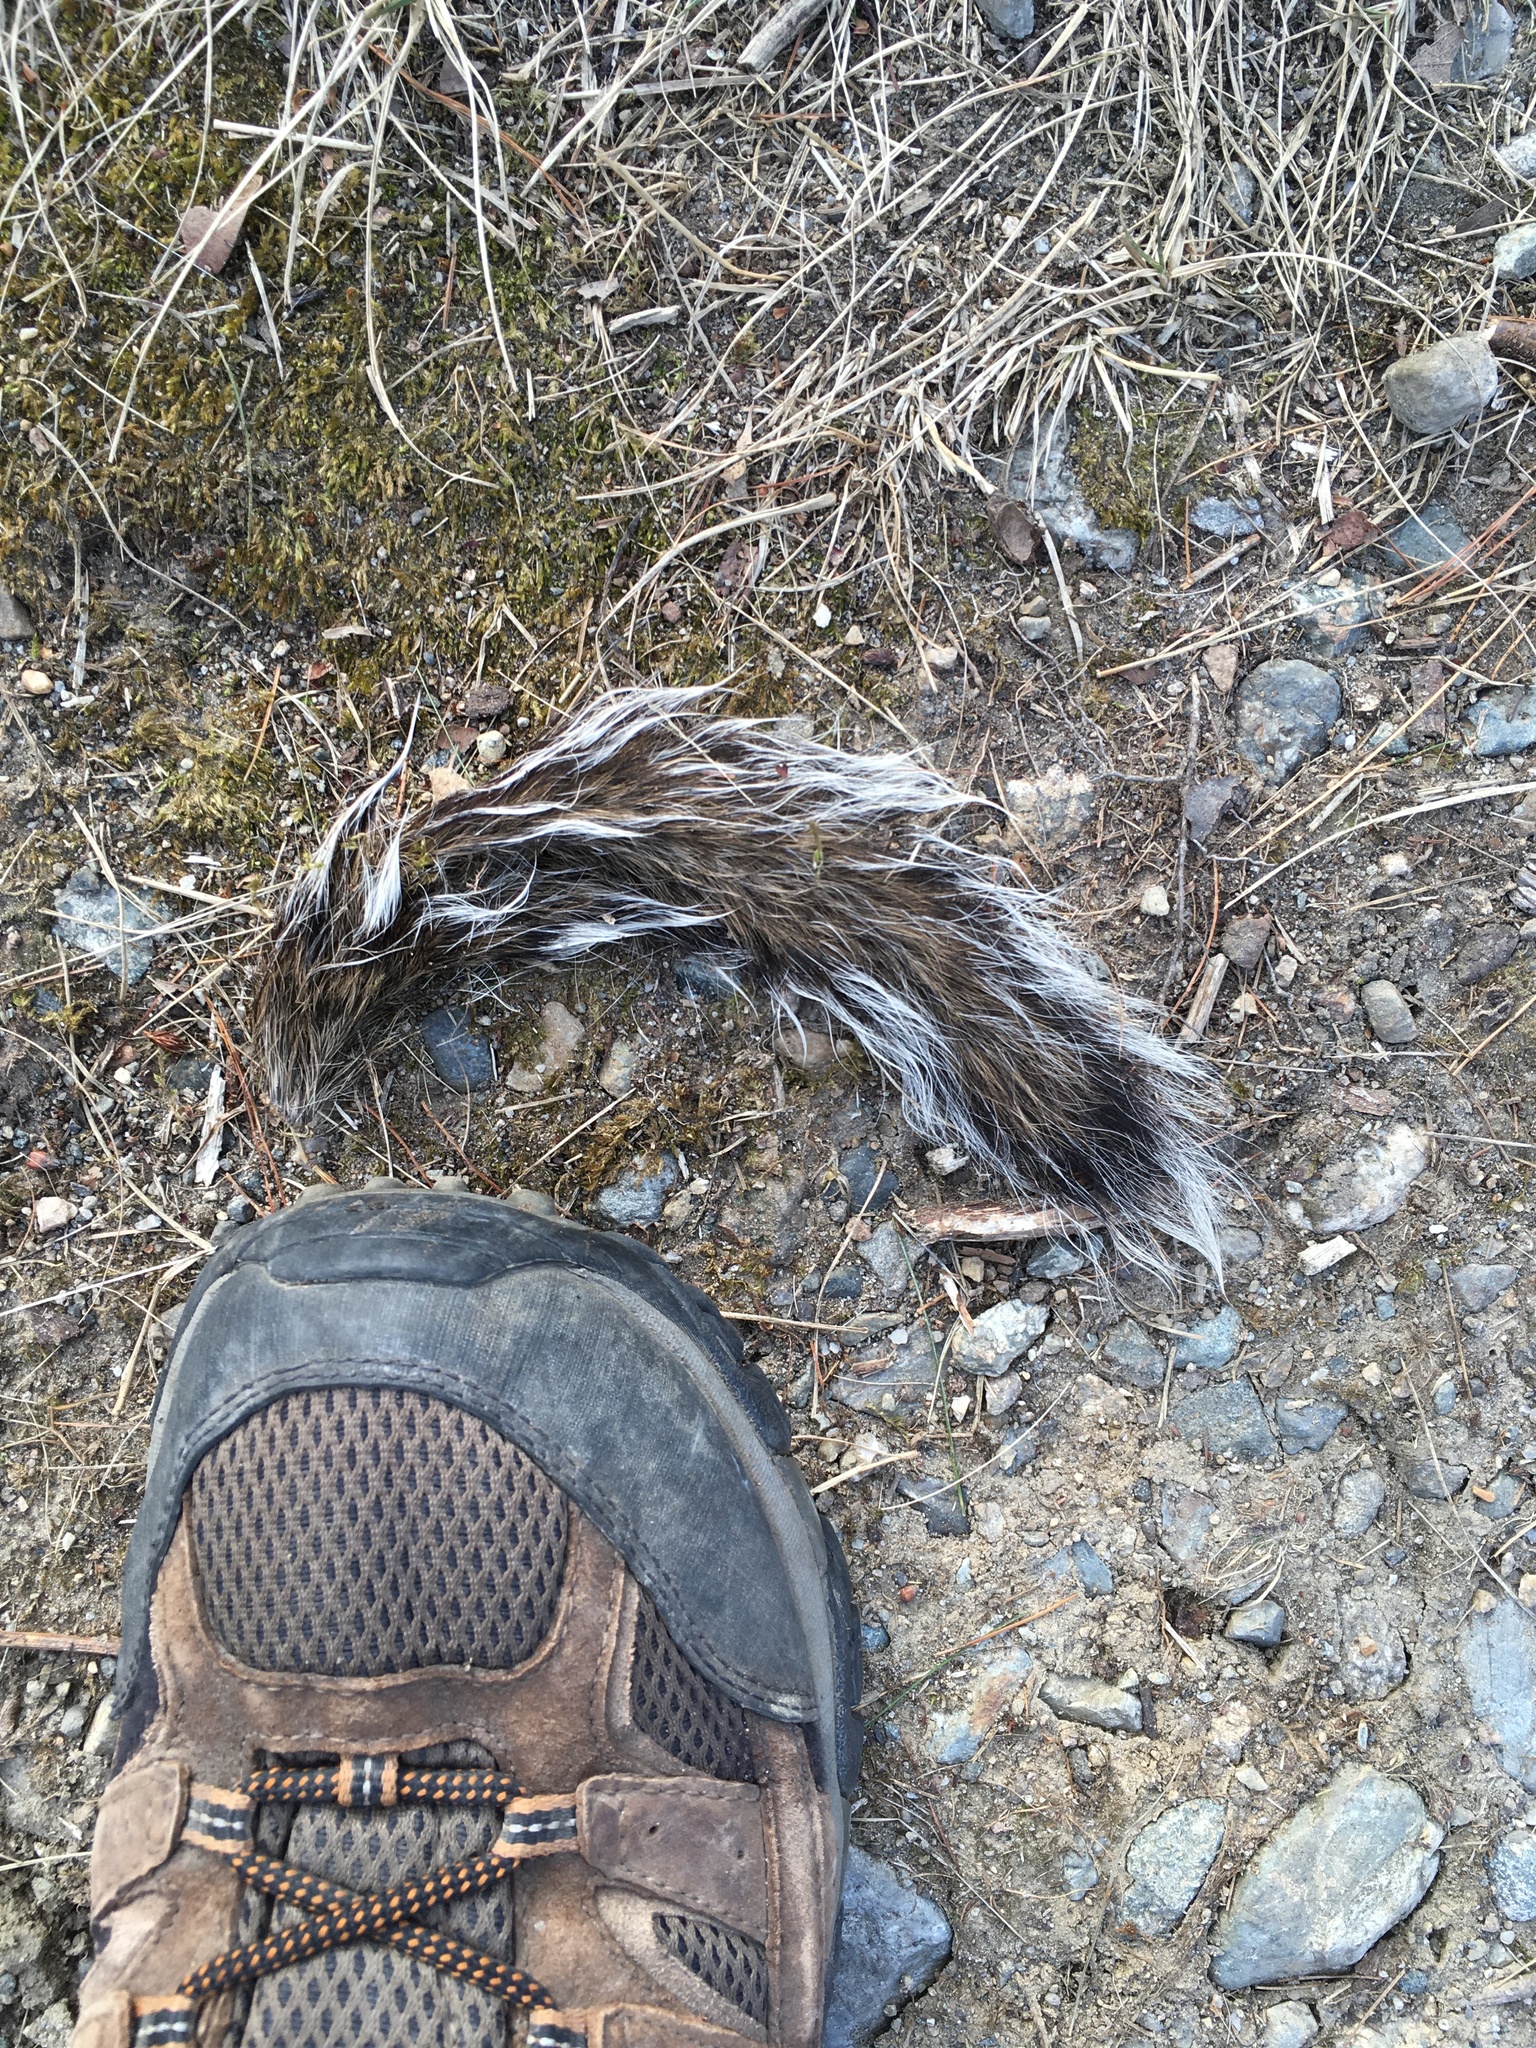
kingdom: Animalia
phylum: Chordata
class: Mammalia
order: Rodentia
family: Sciuridae
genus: Sciurus
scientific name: Sciurus carolinensis
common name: Eastern gray squirrel
